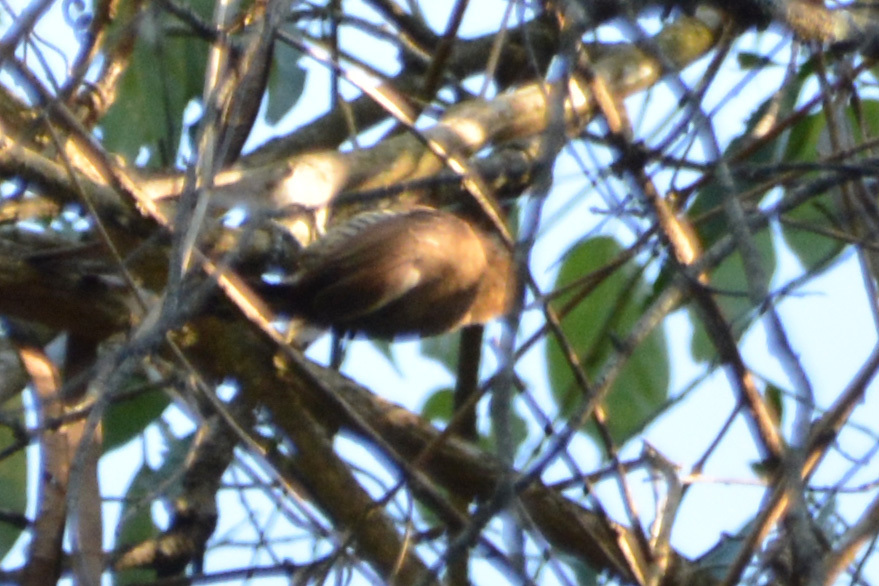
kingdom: Animalia
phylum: Chordata
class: Aves
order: Piciformes
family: Picidae
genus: Picumnus
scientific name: Picumnus temminckii
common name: Ochre-collared piculet
